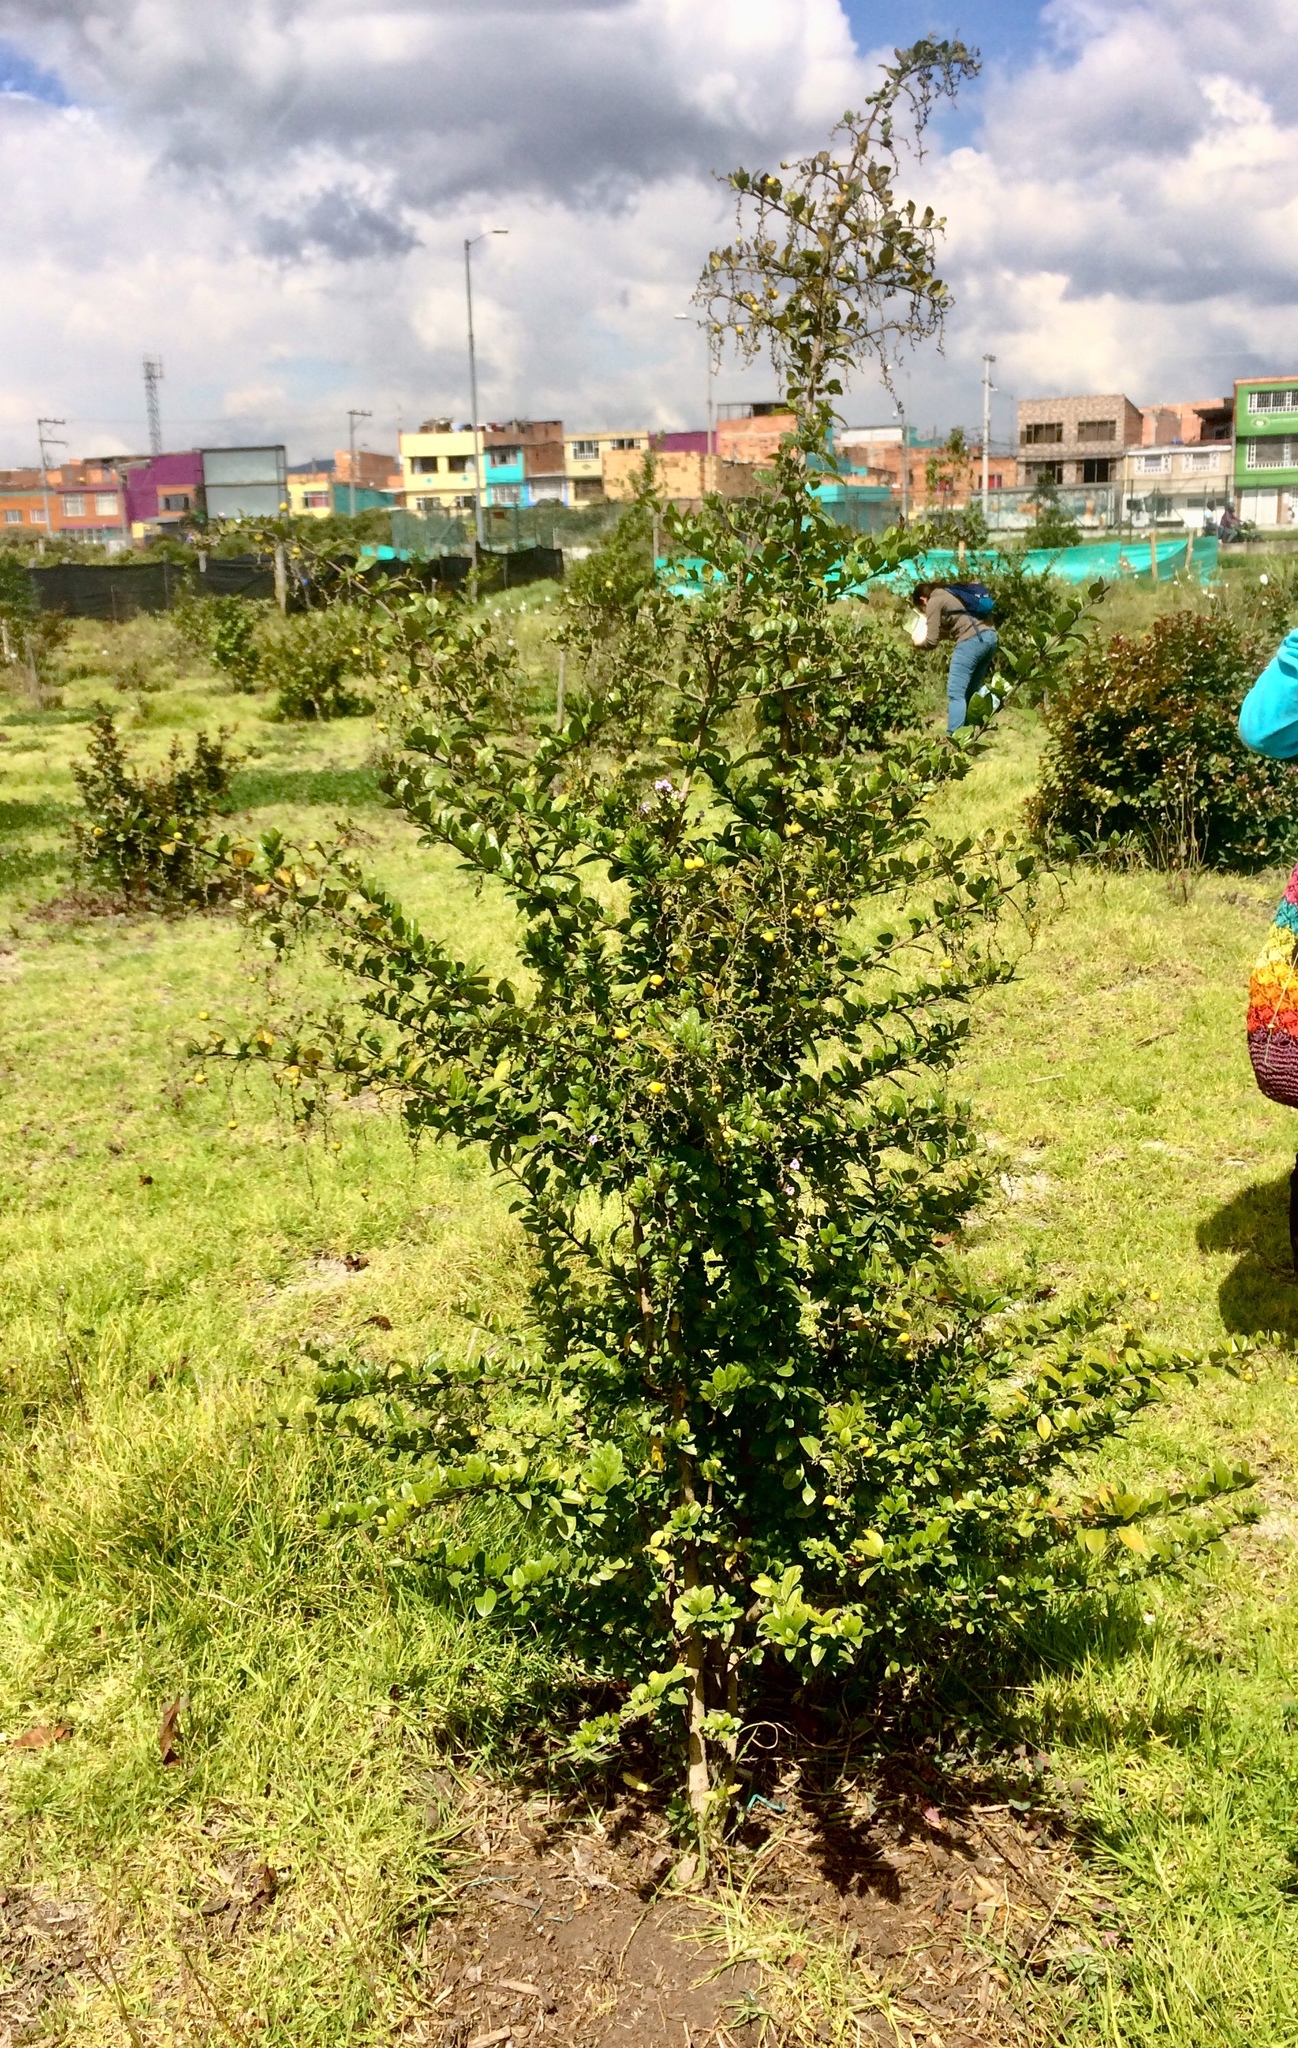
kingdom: Plantae
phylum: Tracheophyta
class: Magnoliopsida
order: Lamiales
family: Verbenaceae
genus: Duranta
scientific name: Duranta mutisii
